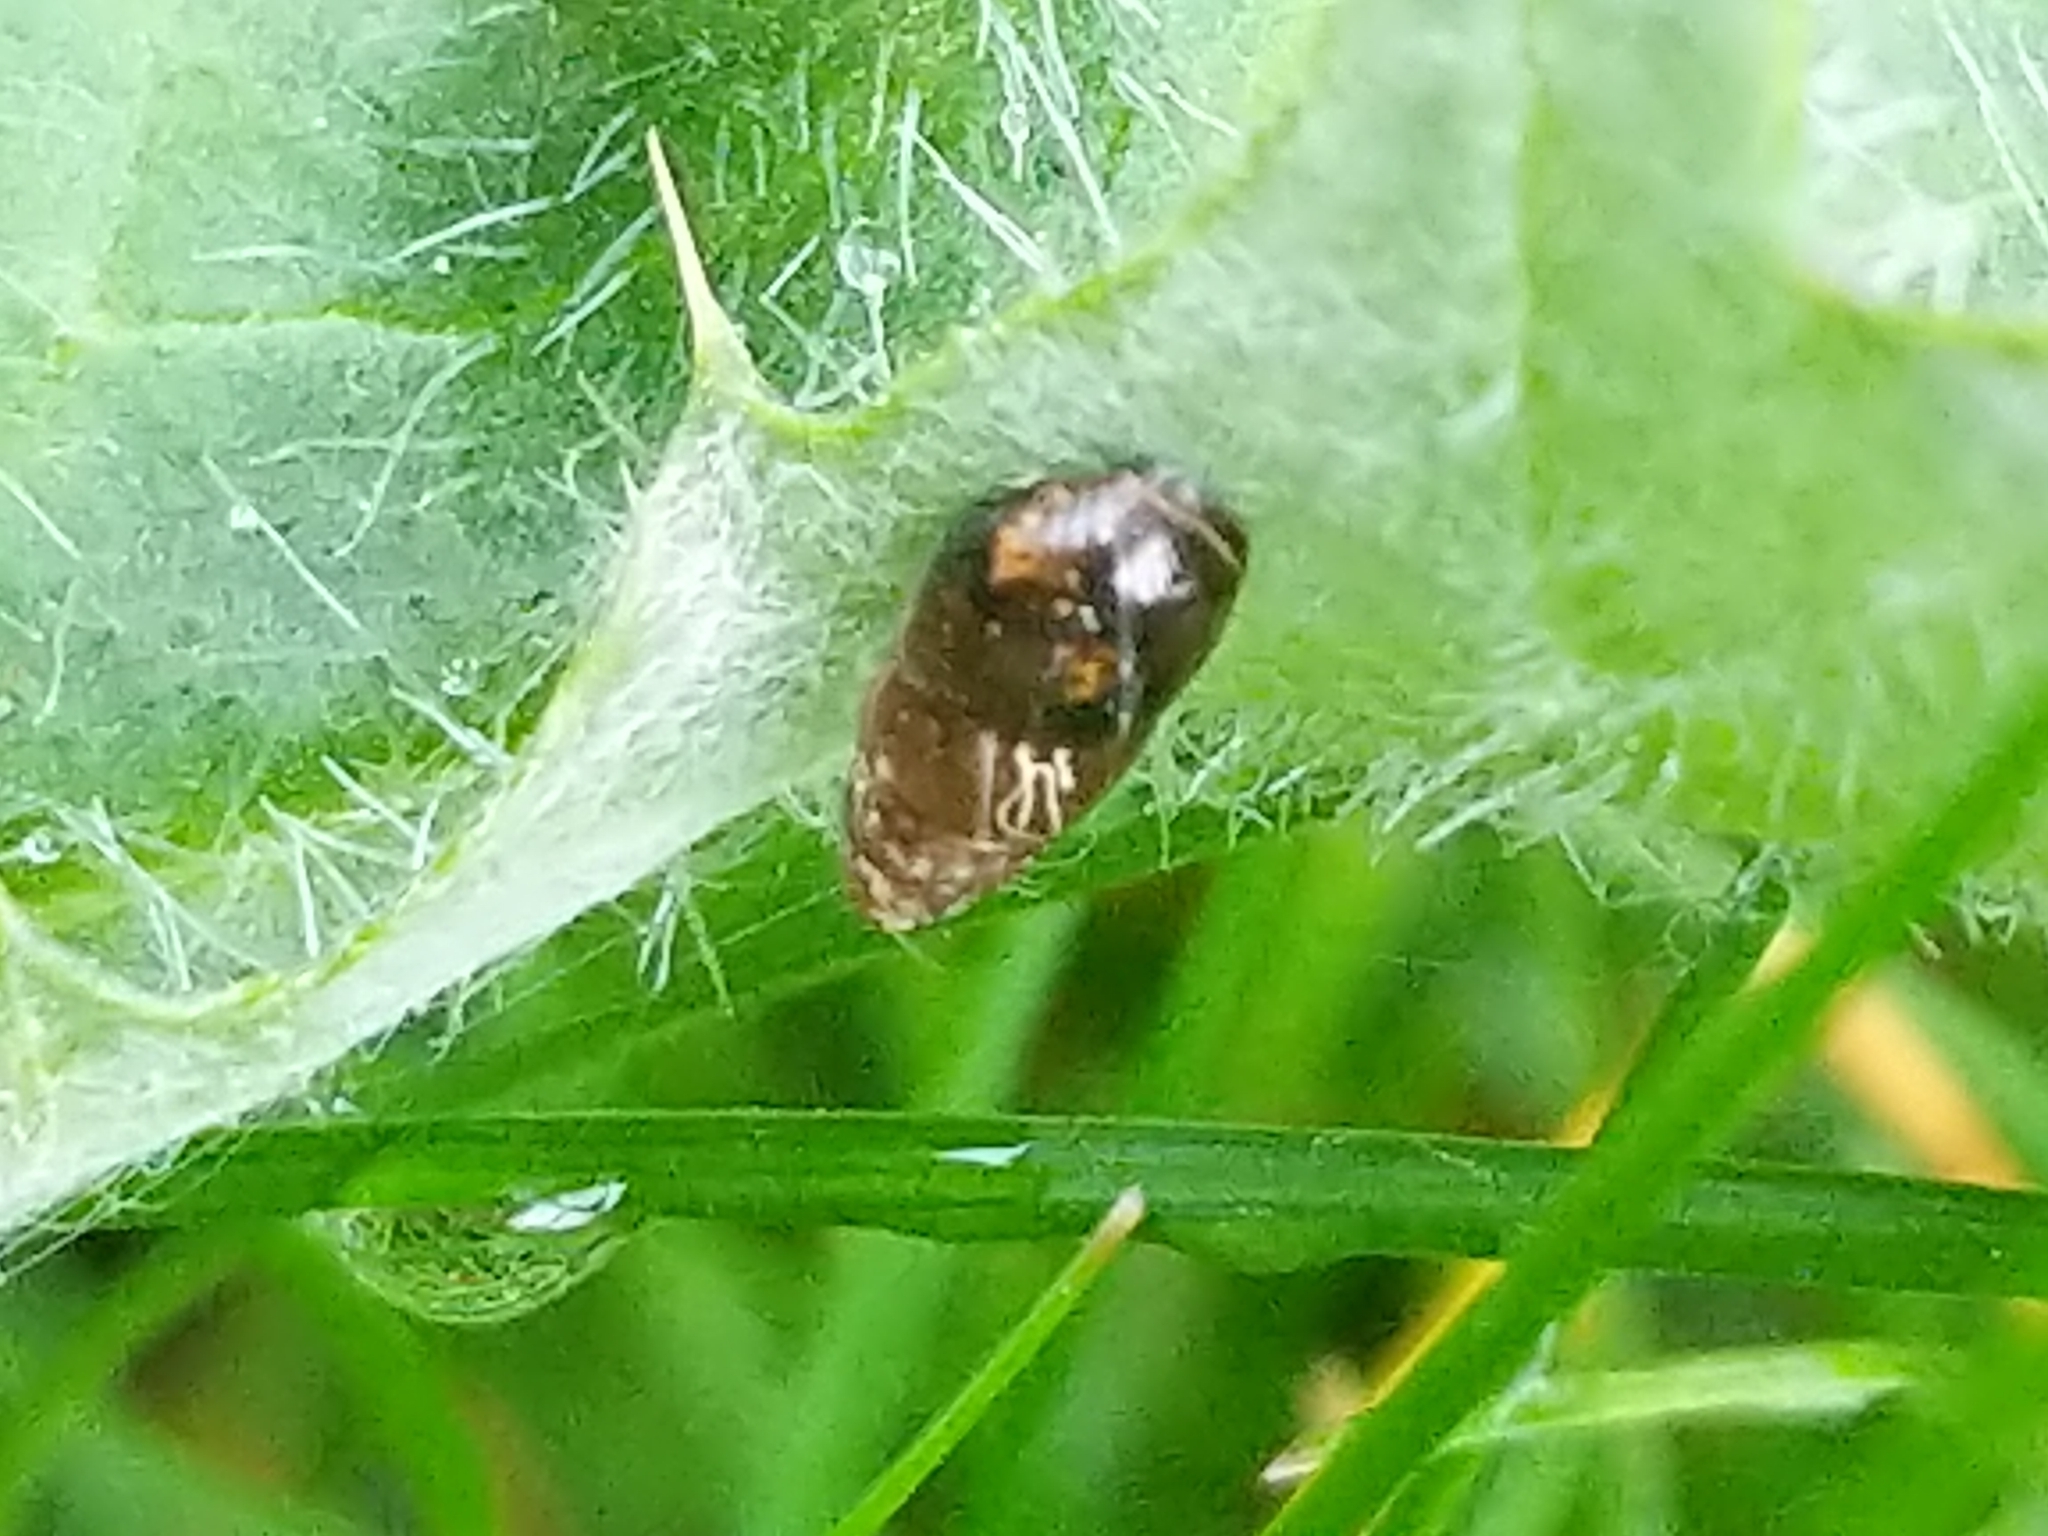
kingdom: Animalia
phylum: Mollusca
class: Gastropoda
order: Stylommatophora
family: Cochlicopidae
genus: Cochlicopa
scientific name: Cochlicopa lubrica
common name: Glossy pillar snail
